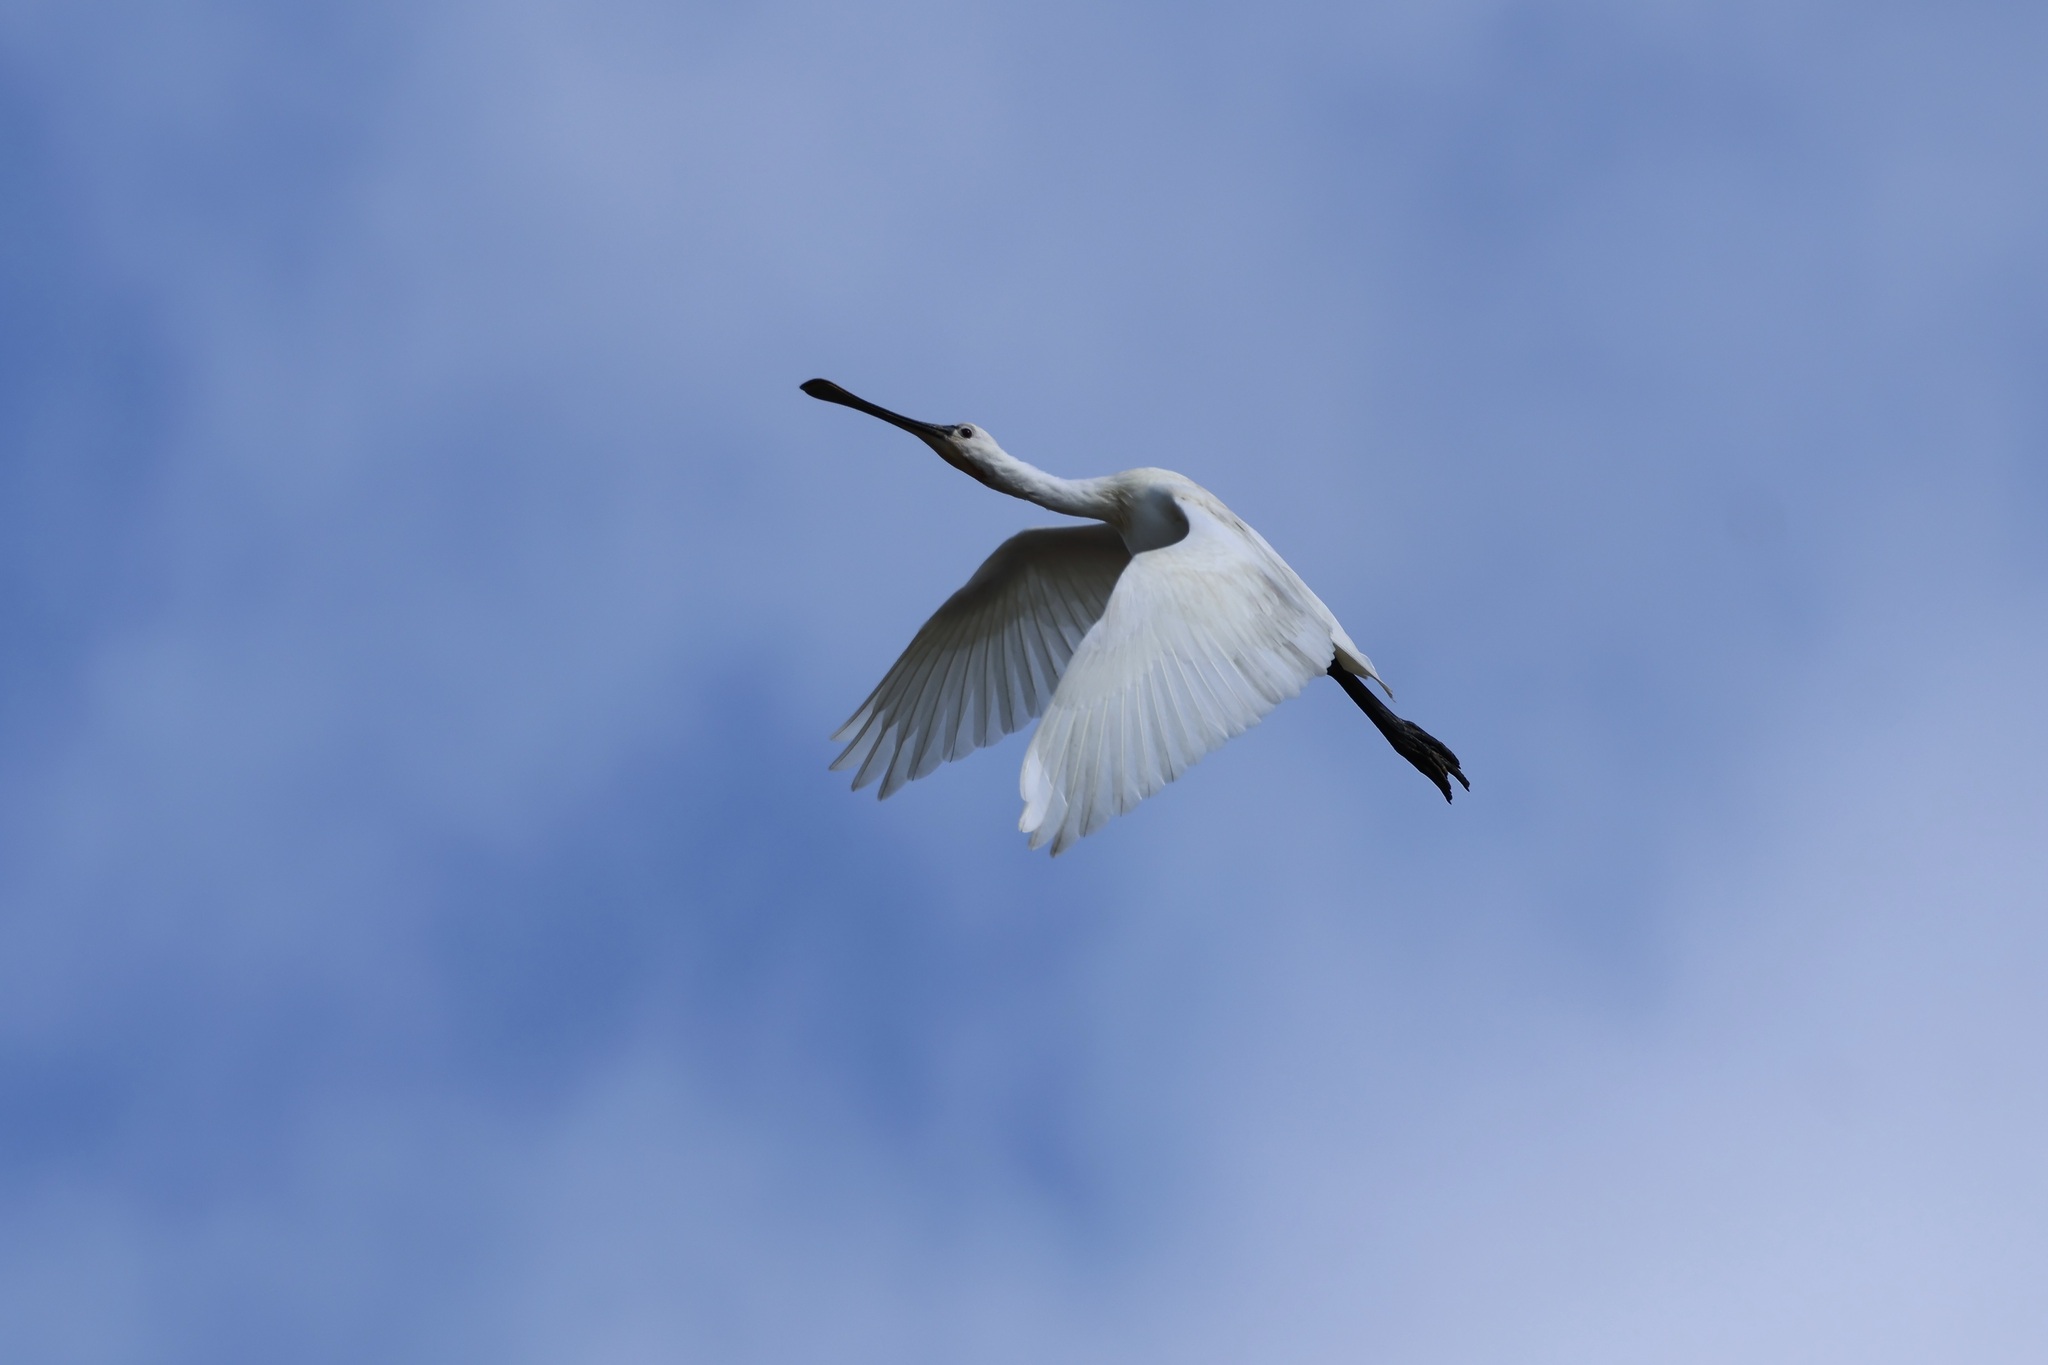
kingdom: Animalia
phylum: Chordata
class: Aves
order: Pelecaniformes
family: Threskiornithidae
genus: Platalea
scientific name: Platalea leucorodia
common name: Eurasian spoonbill
